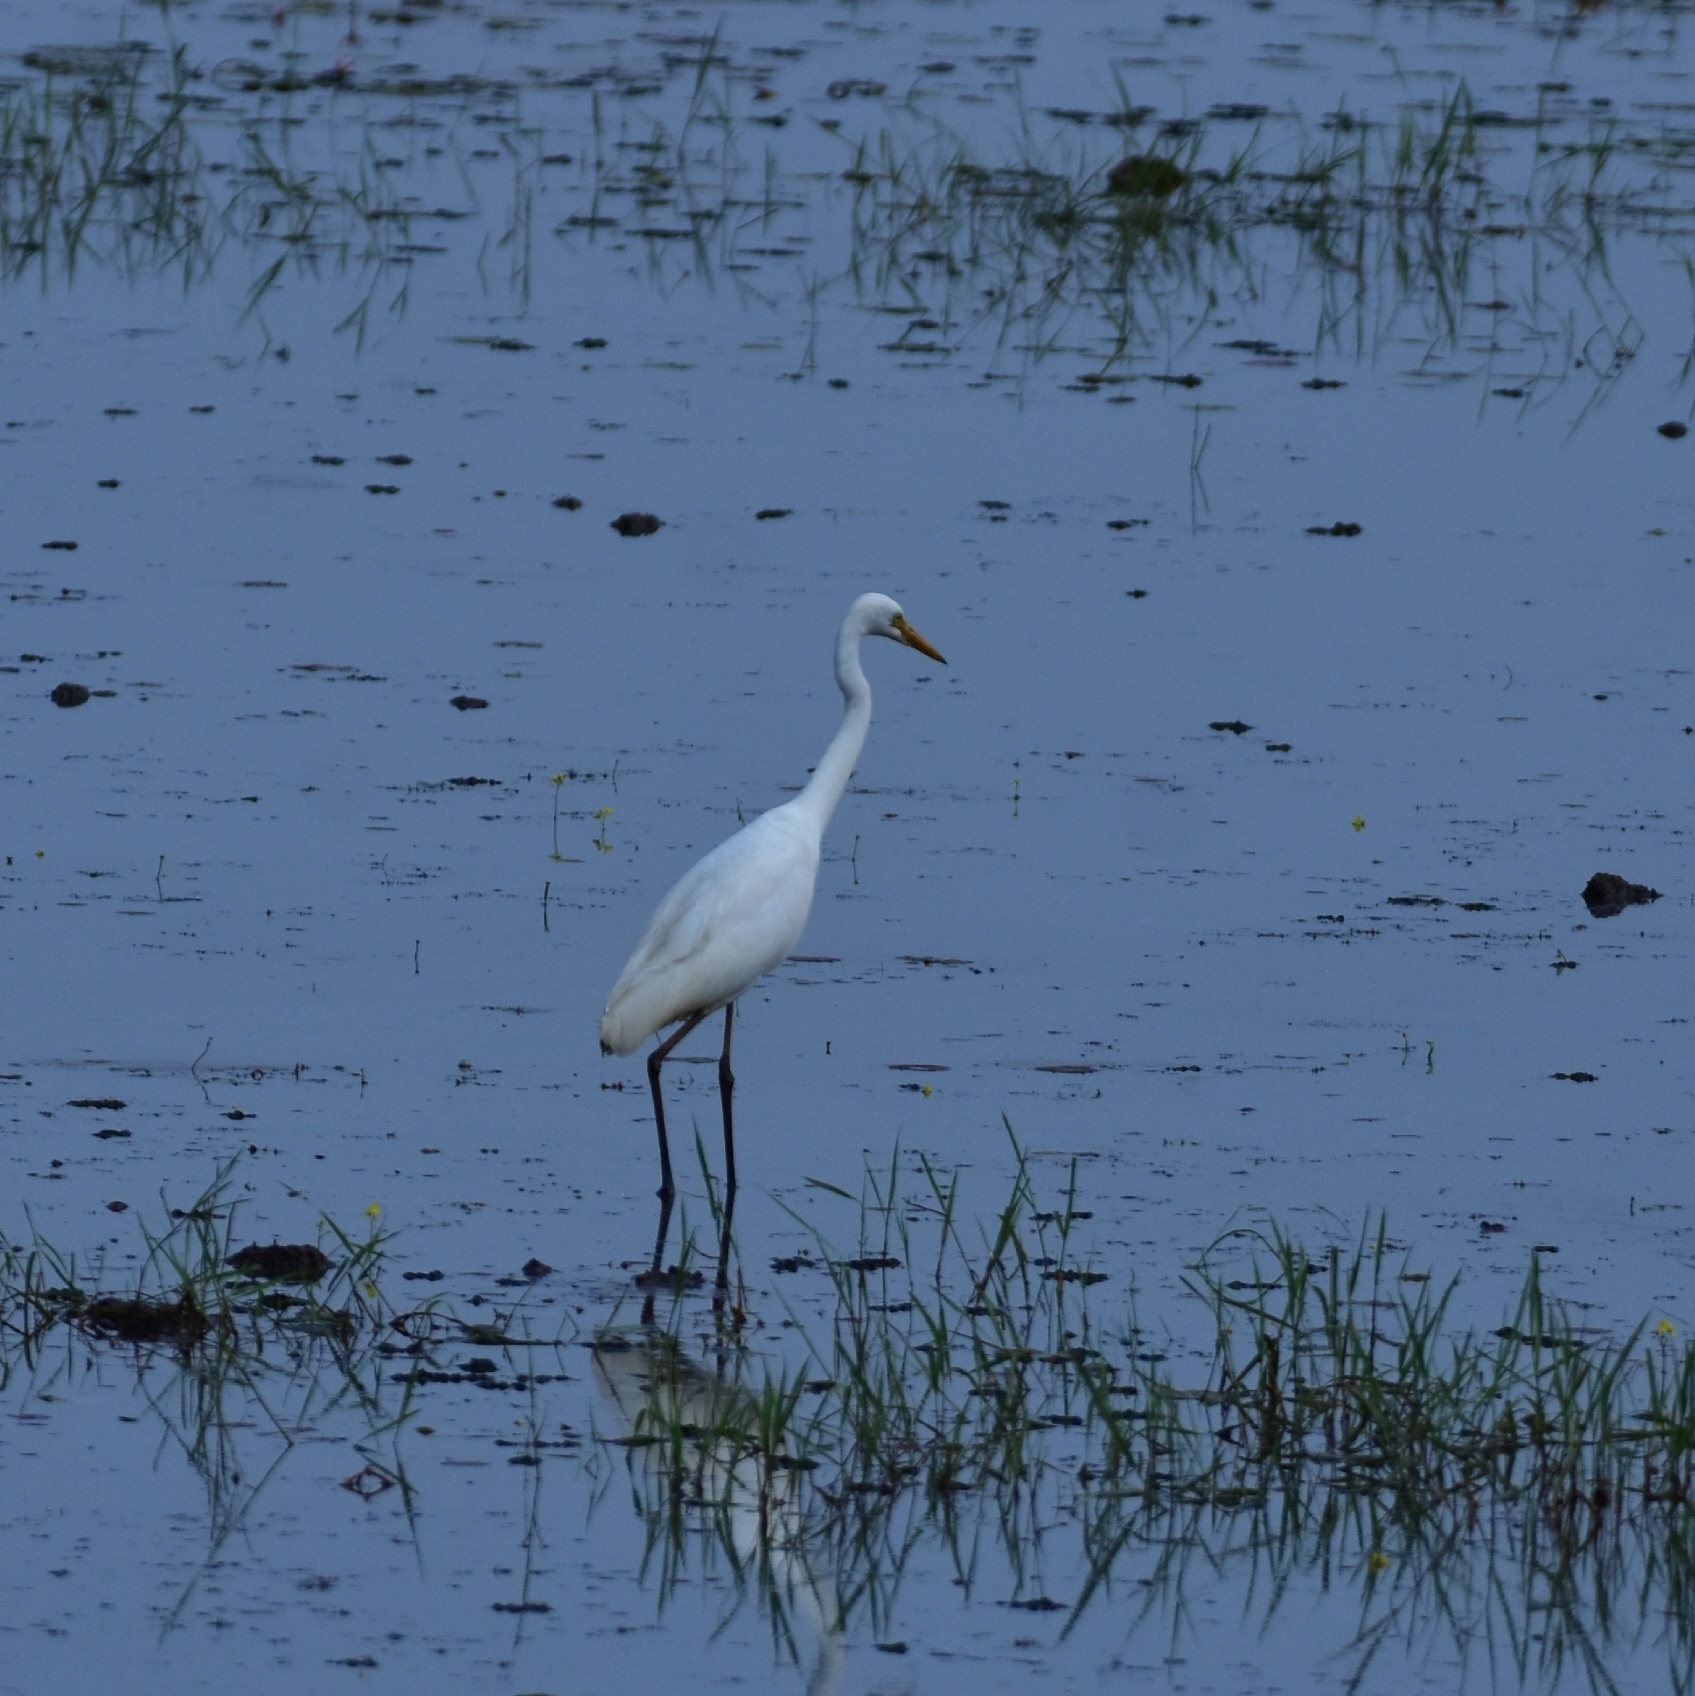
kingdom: Animalia
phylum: Chordata
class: Aves
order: Pelecaniformes
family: Ardeidae
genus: Egretta
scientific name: Egretta intermedia
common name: Intermediate egret
